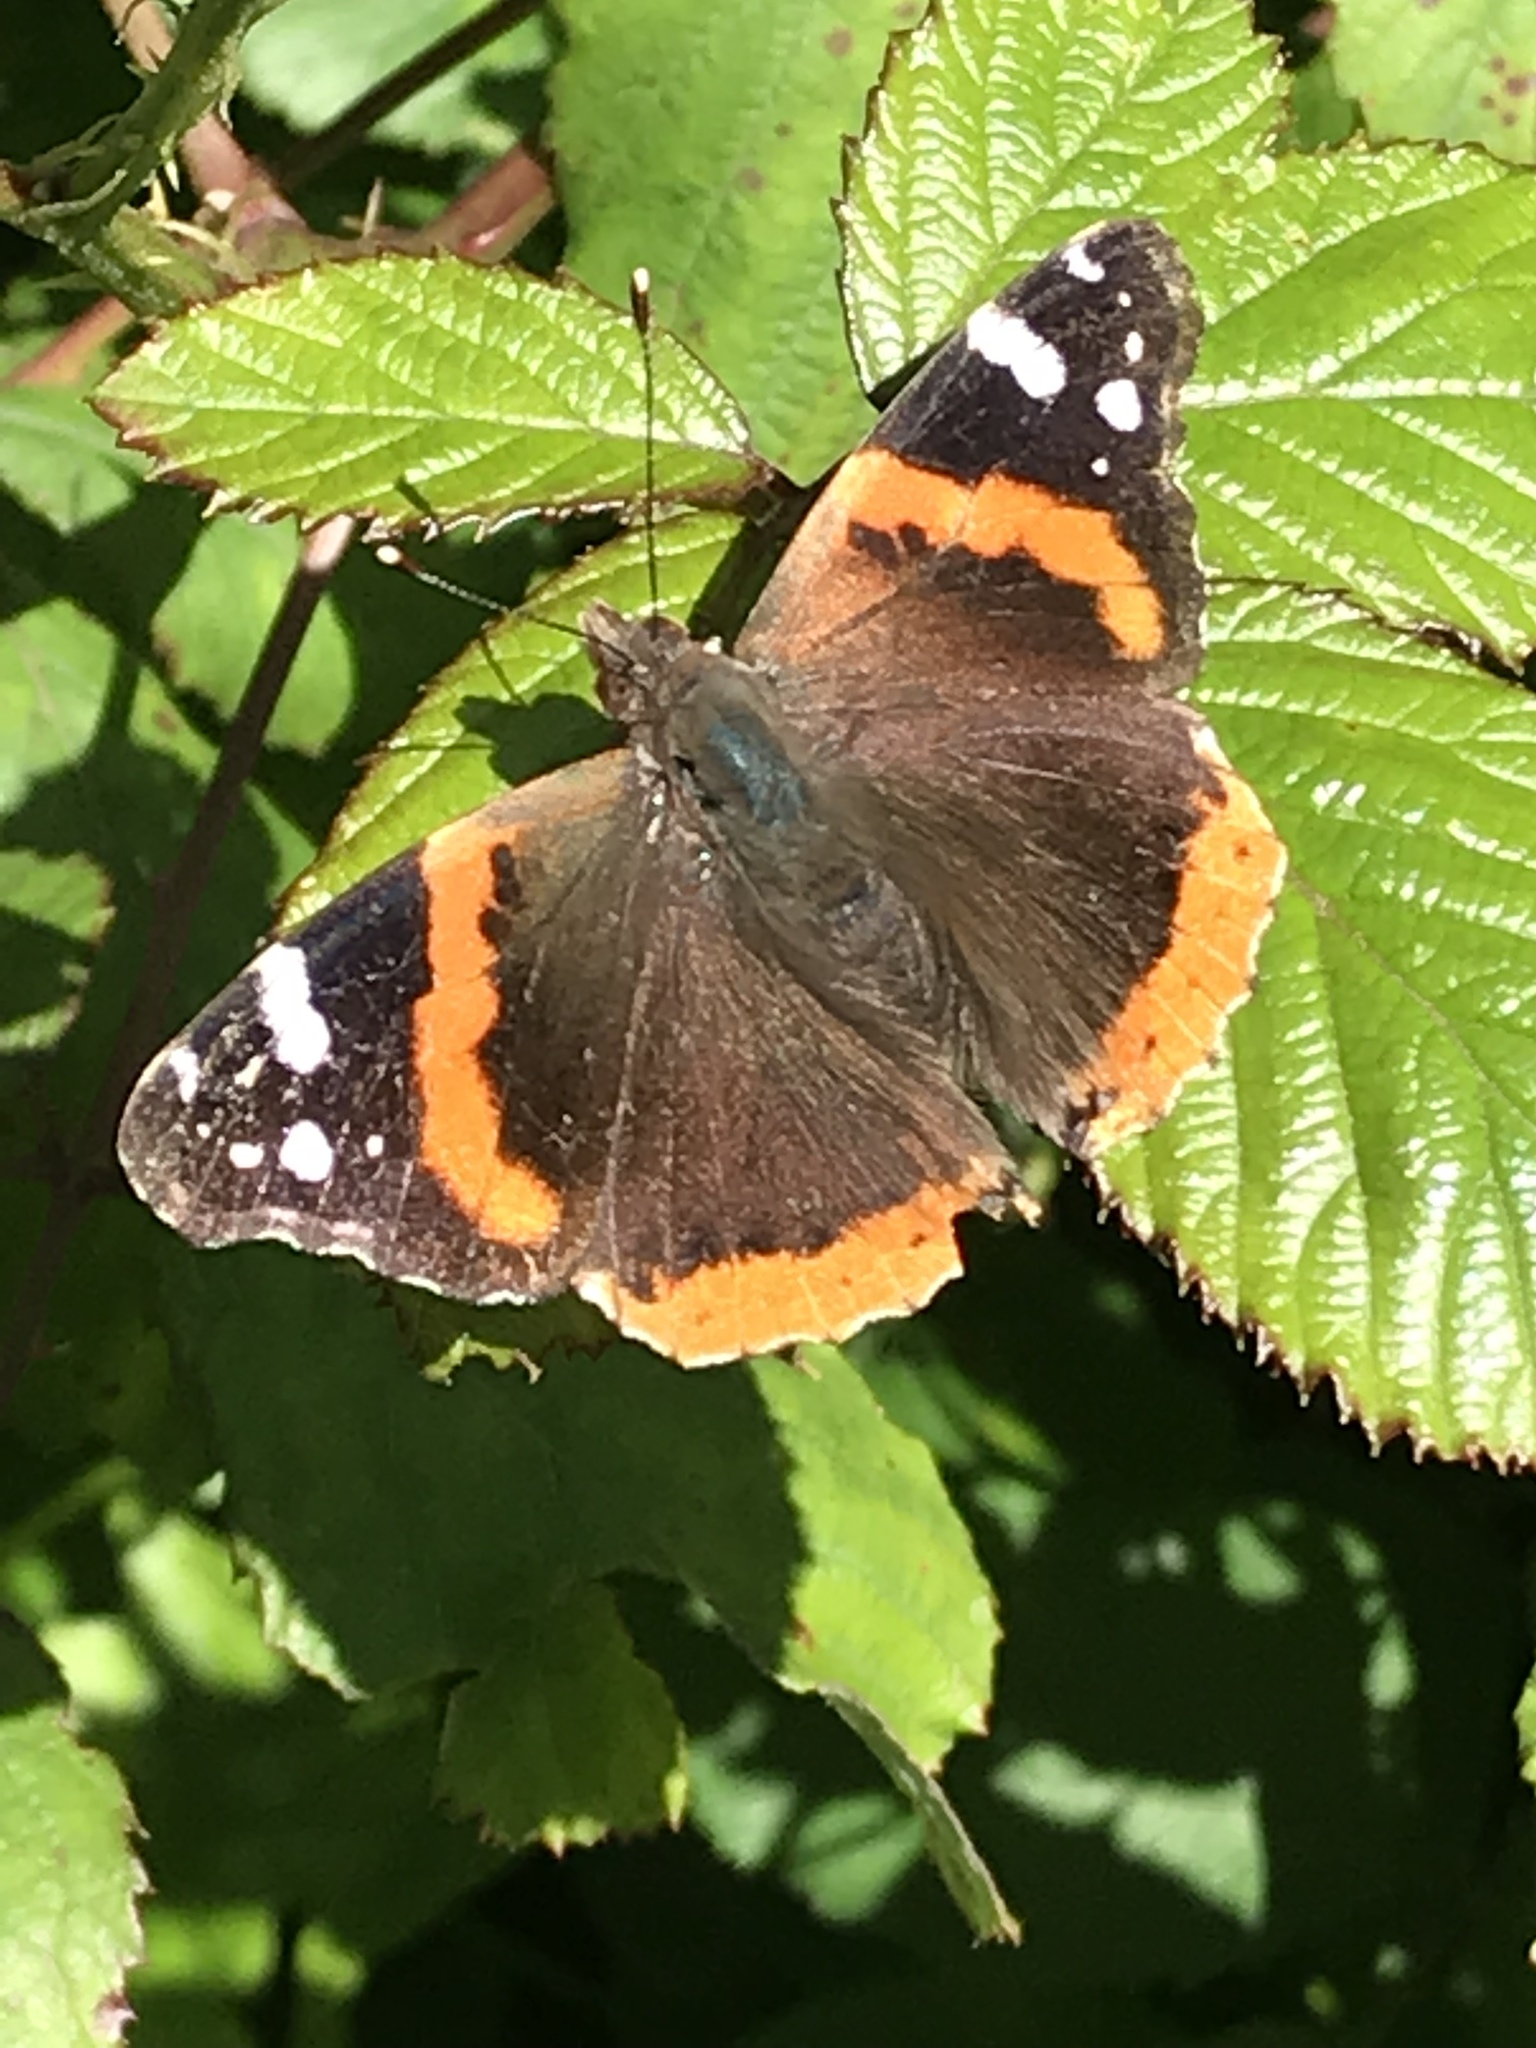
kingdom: Animalia
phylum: Arthropoda
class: Insecta
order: Lepidoptera
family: Nymphalidae
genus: Vanessa
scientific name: Vanessa atalanta
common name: Red admiral
